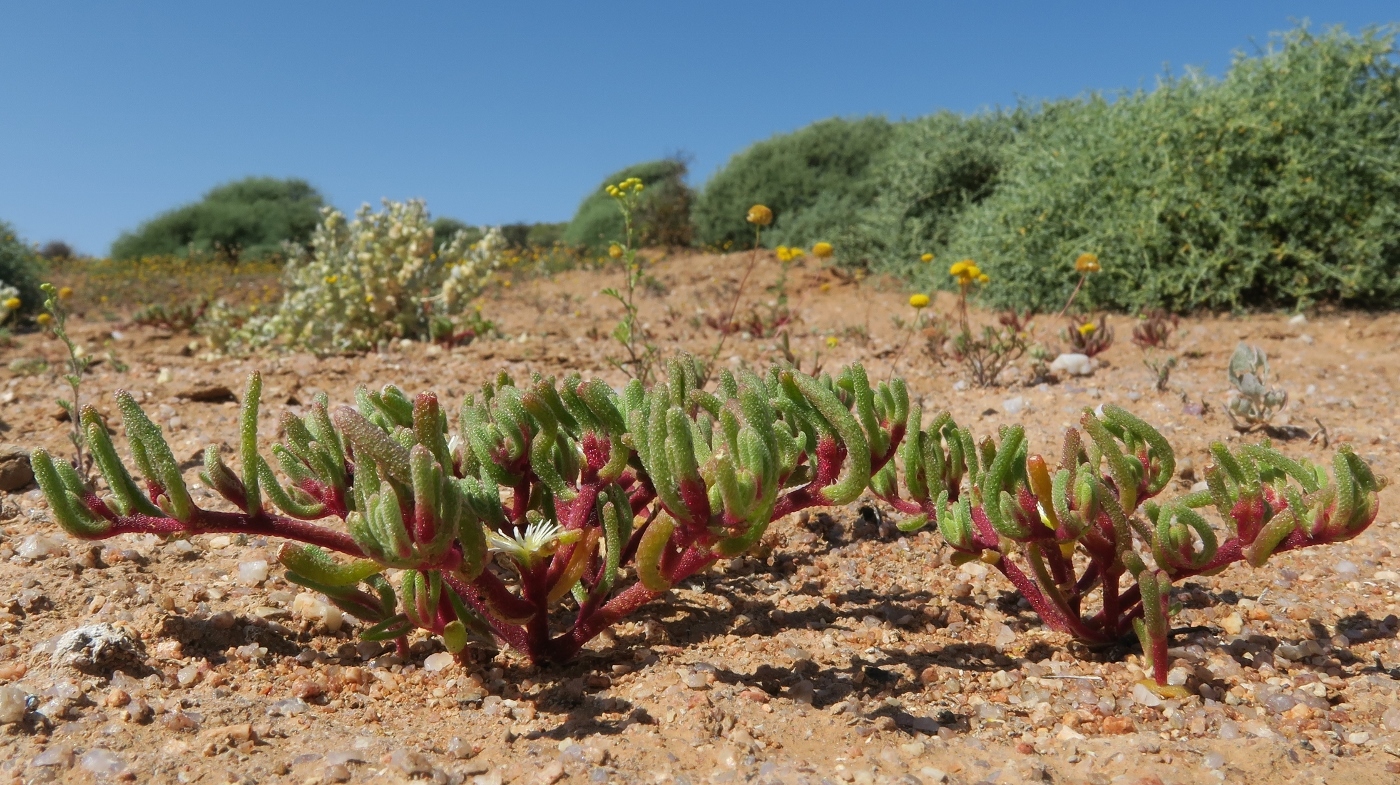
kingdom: Plantae
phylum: Tracheophyta
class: Magnoliopsida
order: Caryophyllales
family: Aizoaceae
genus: Mesembryanthemum
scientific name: Mesembryanthemum nodiflorum
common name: Slenderleaf iceplant
